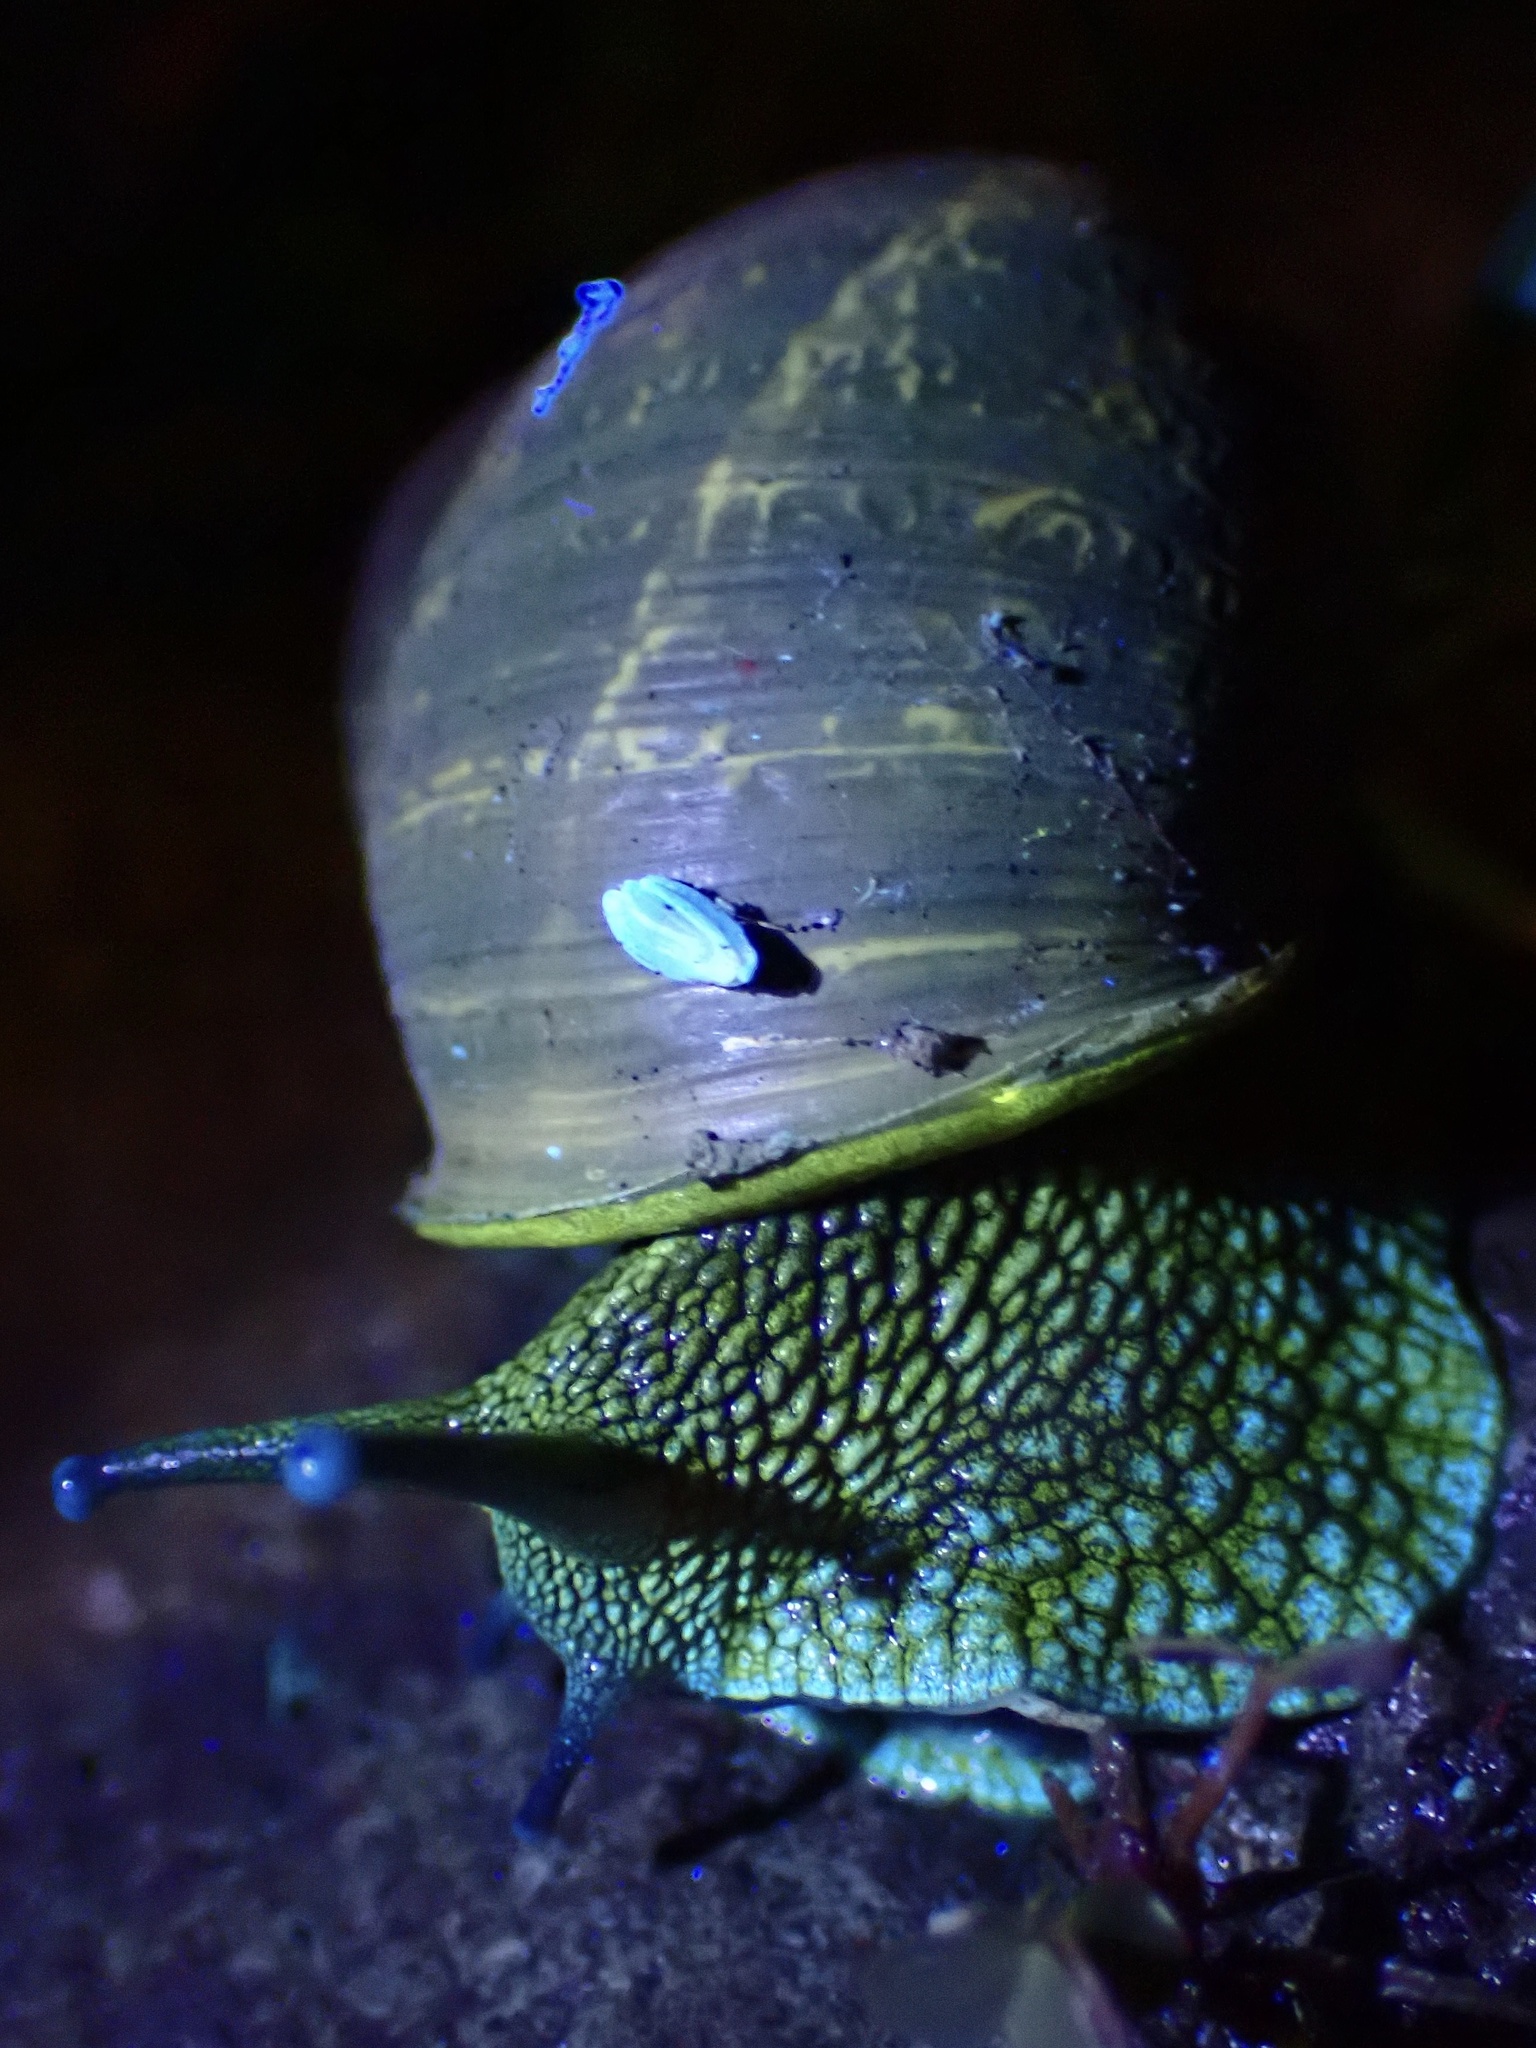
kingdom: Animalia
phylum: Mollusca
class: Gastropoda
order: Stylommatophora
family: Helicidae
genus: Cornu
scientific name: Cornu aspersum
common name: Brown garden snail
